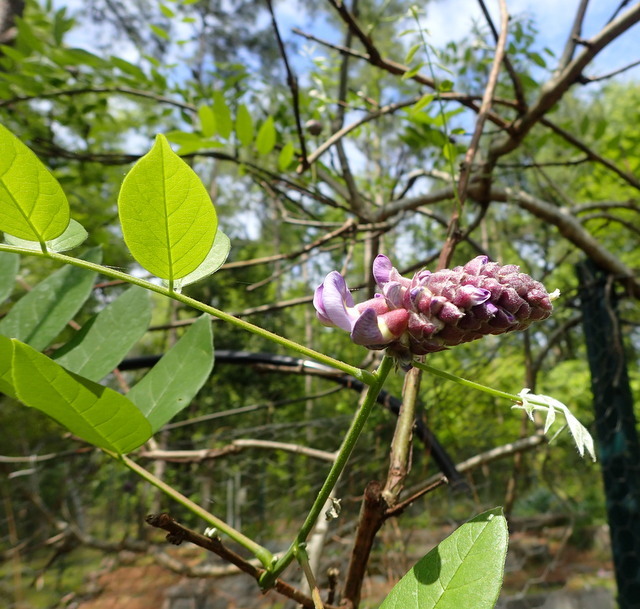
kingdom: Plantae
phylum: Tracheophyta
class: Magnoliopsida
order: Fabales
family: Fabaceae
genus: Wisteria
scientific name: Wisteria frutescens
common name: American wisteria
